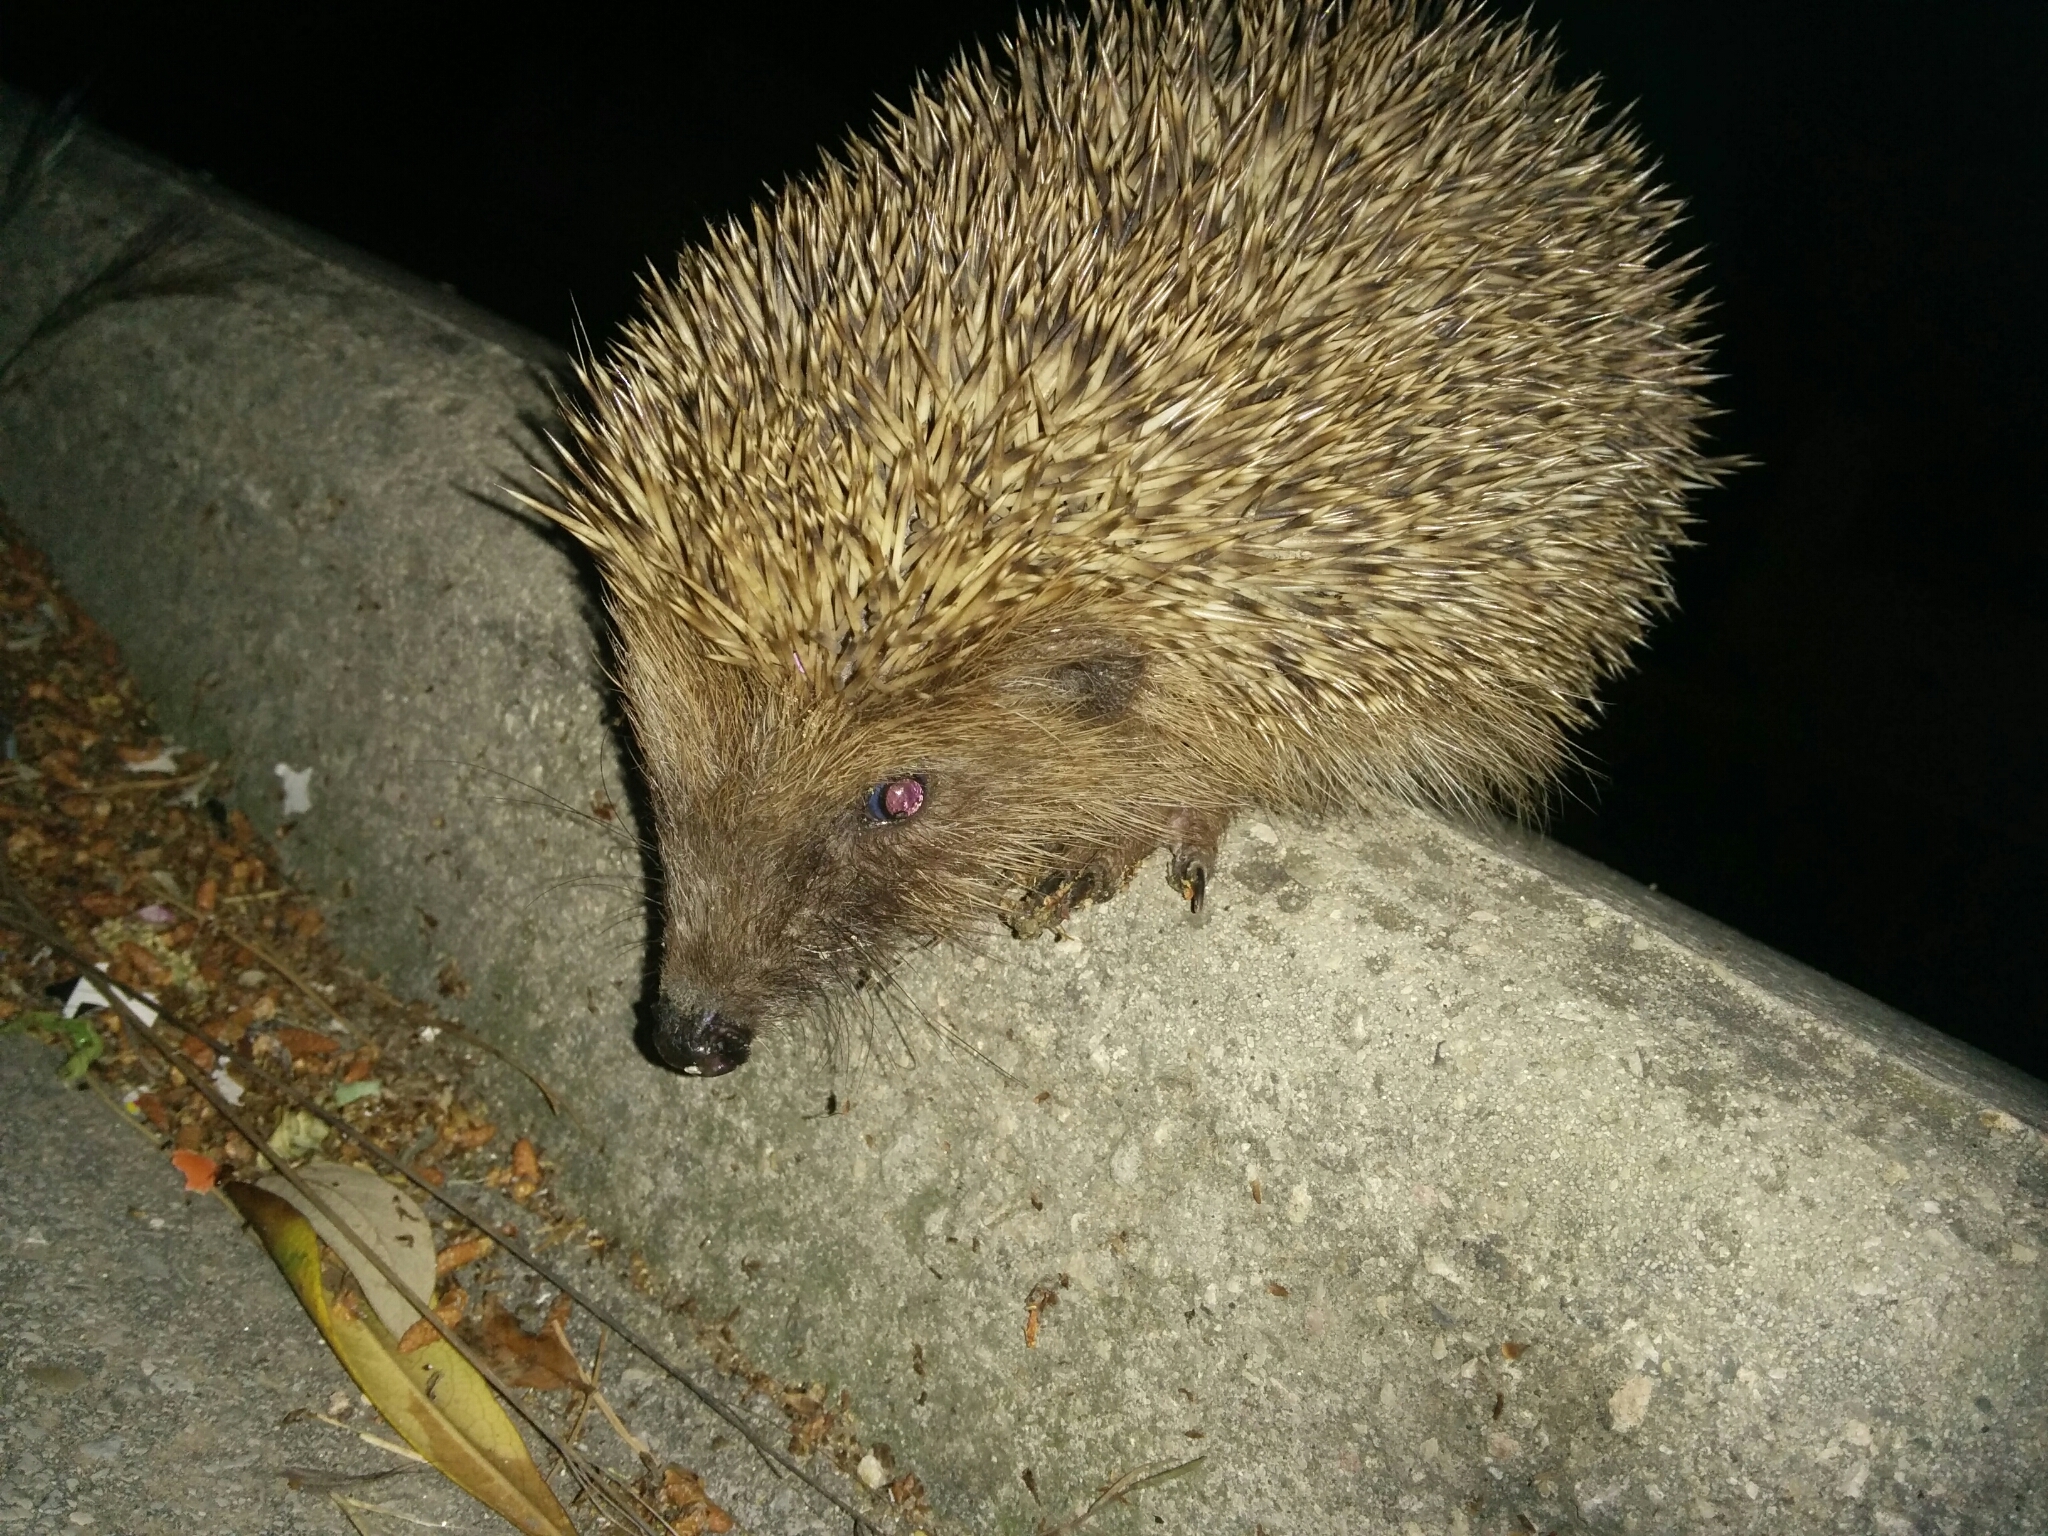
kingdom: Animalia
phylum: Chordata
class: Mammalia
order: Erinaceomorpha
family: Erinaceidae
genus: Erinaceus
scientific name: Erinaceus europaeus
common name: West european hedgehog
